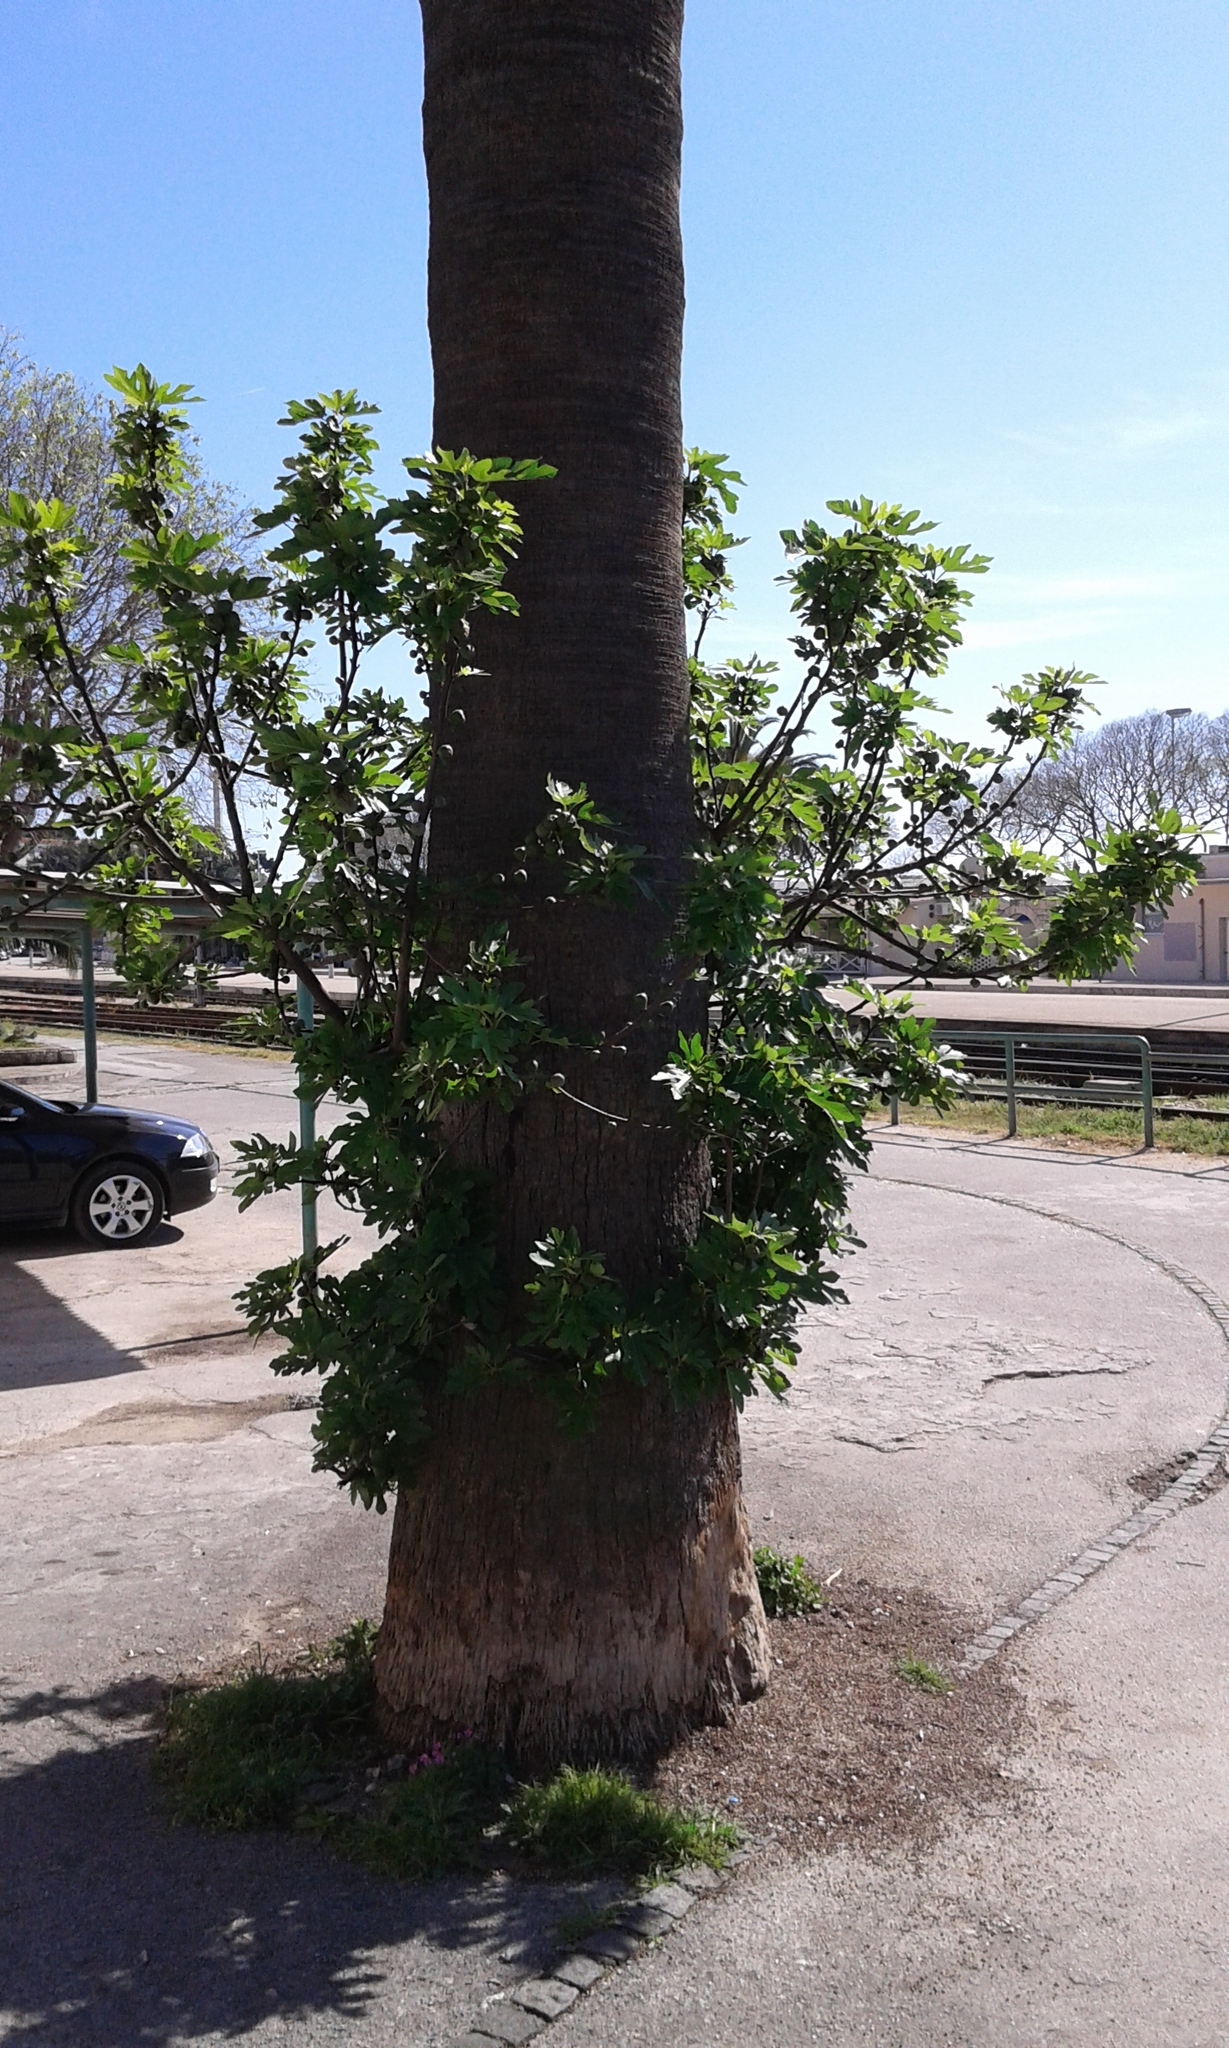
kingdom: Plantae
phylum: Tracheophyta
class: Magnoliopsida
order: Rosales
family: Moraceae
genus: Ficus
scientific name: Ficus carica
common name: Fig
